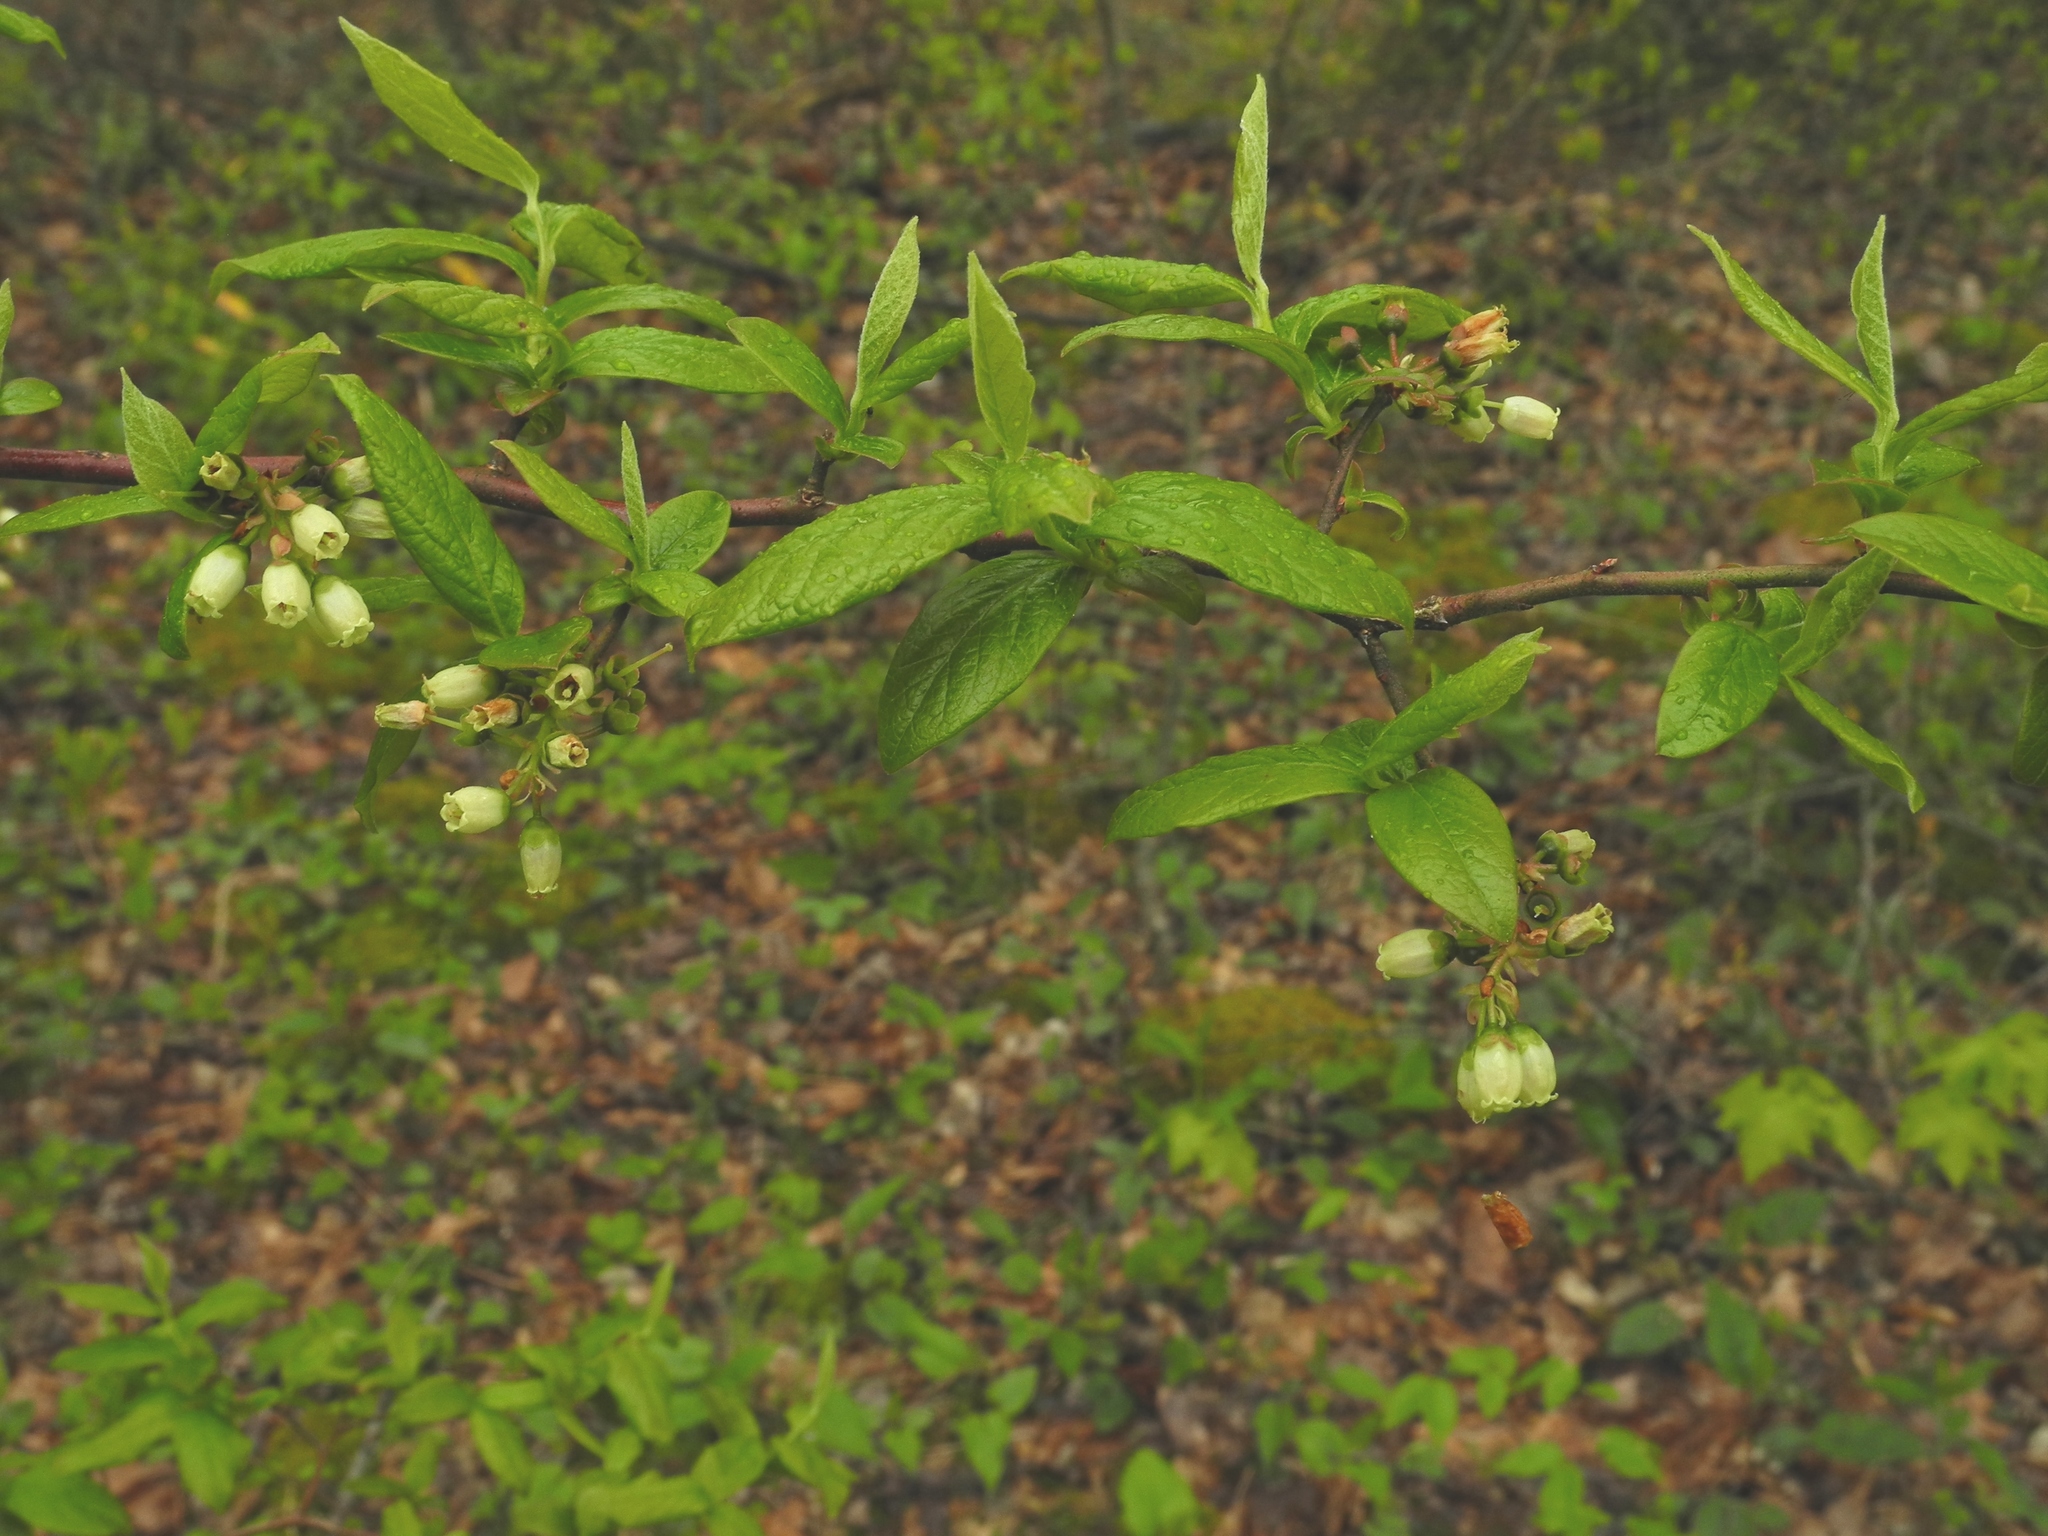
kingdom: Plantae
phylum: Tracheophyta
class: Magnoliopsida
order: Ericales
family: Ericaceae
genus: Vaccinium
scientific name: Vaccinium corymbosum
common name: Blueberry
